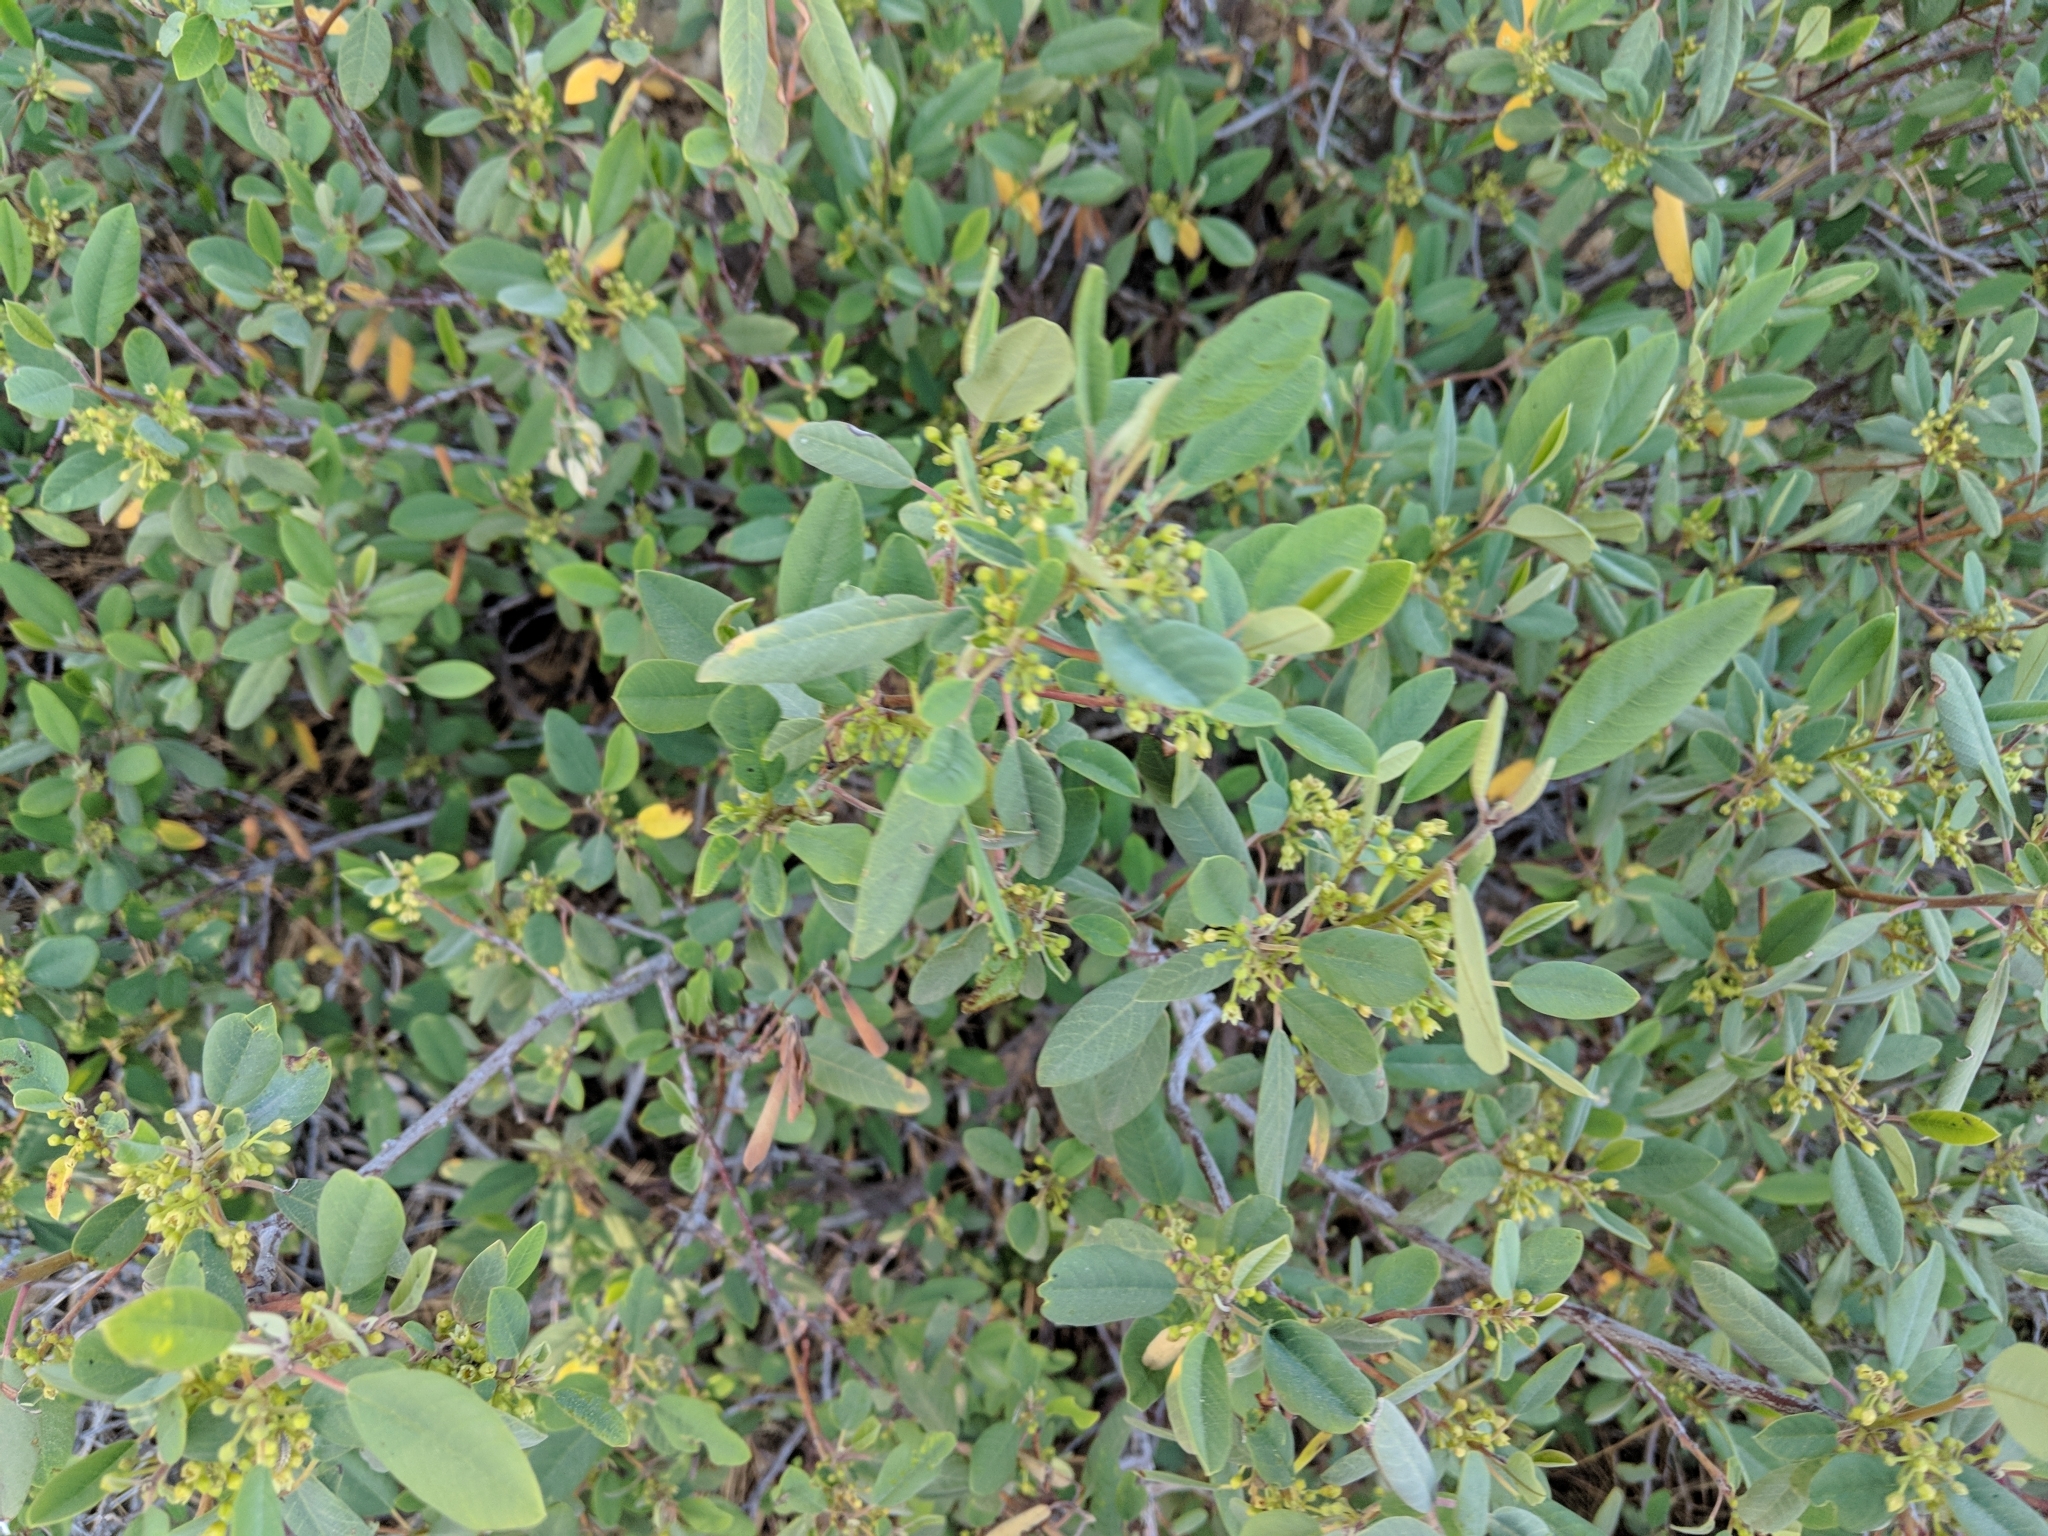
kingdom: Plantae
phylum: Tracheophyta
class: Magnoliopsida
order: Rosales
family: Rhamnaceae
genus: Frangula
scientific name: Frangula californica
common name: California buckthorn
